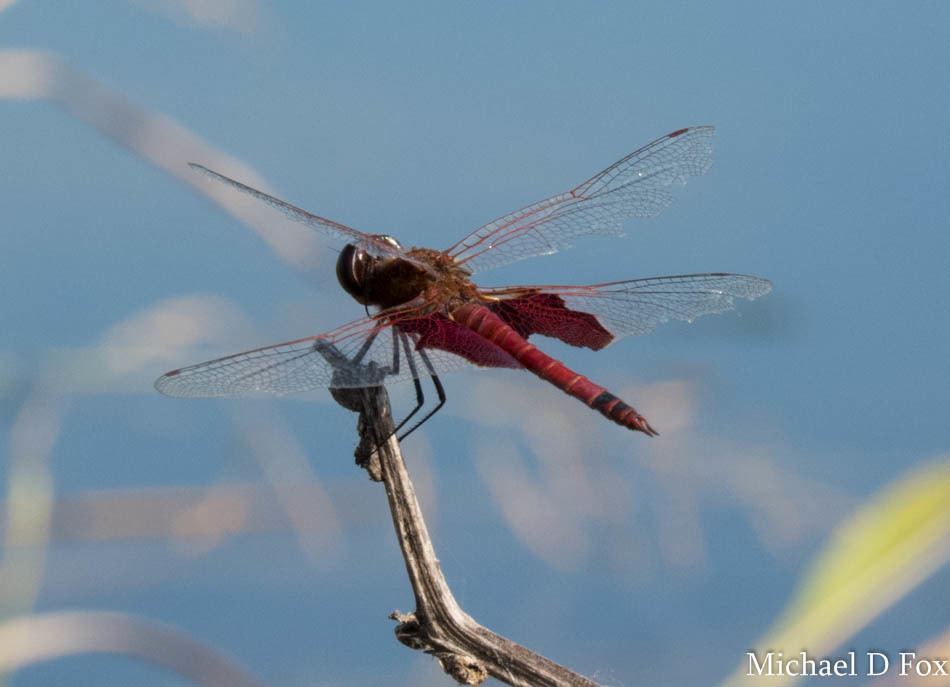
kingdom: Animalia
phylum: Arthropoda
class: Insecta
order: Odonata
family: Libellulidae
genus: Tramea
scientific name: Tramea carolina
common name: Carolina saddlebags
